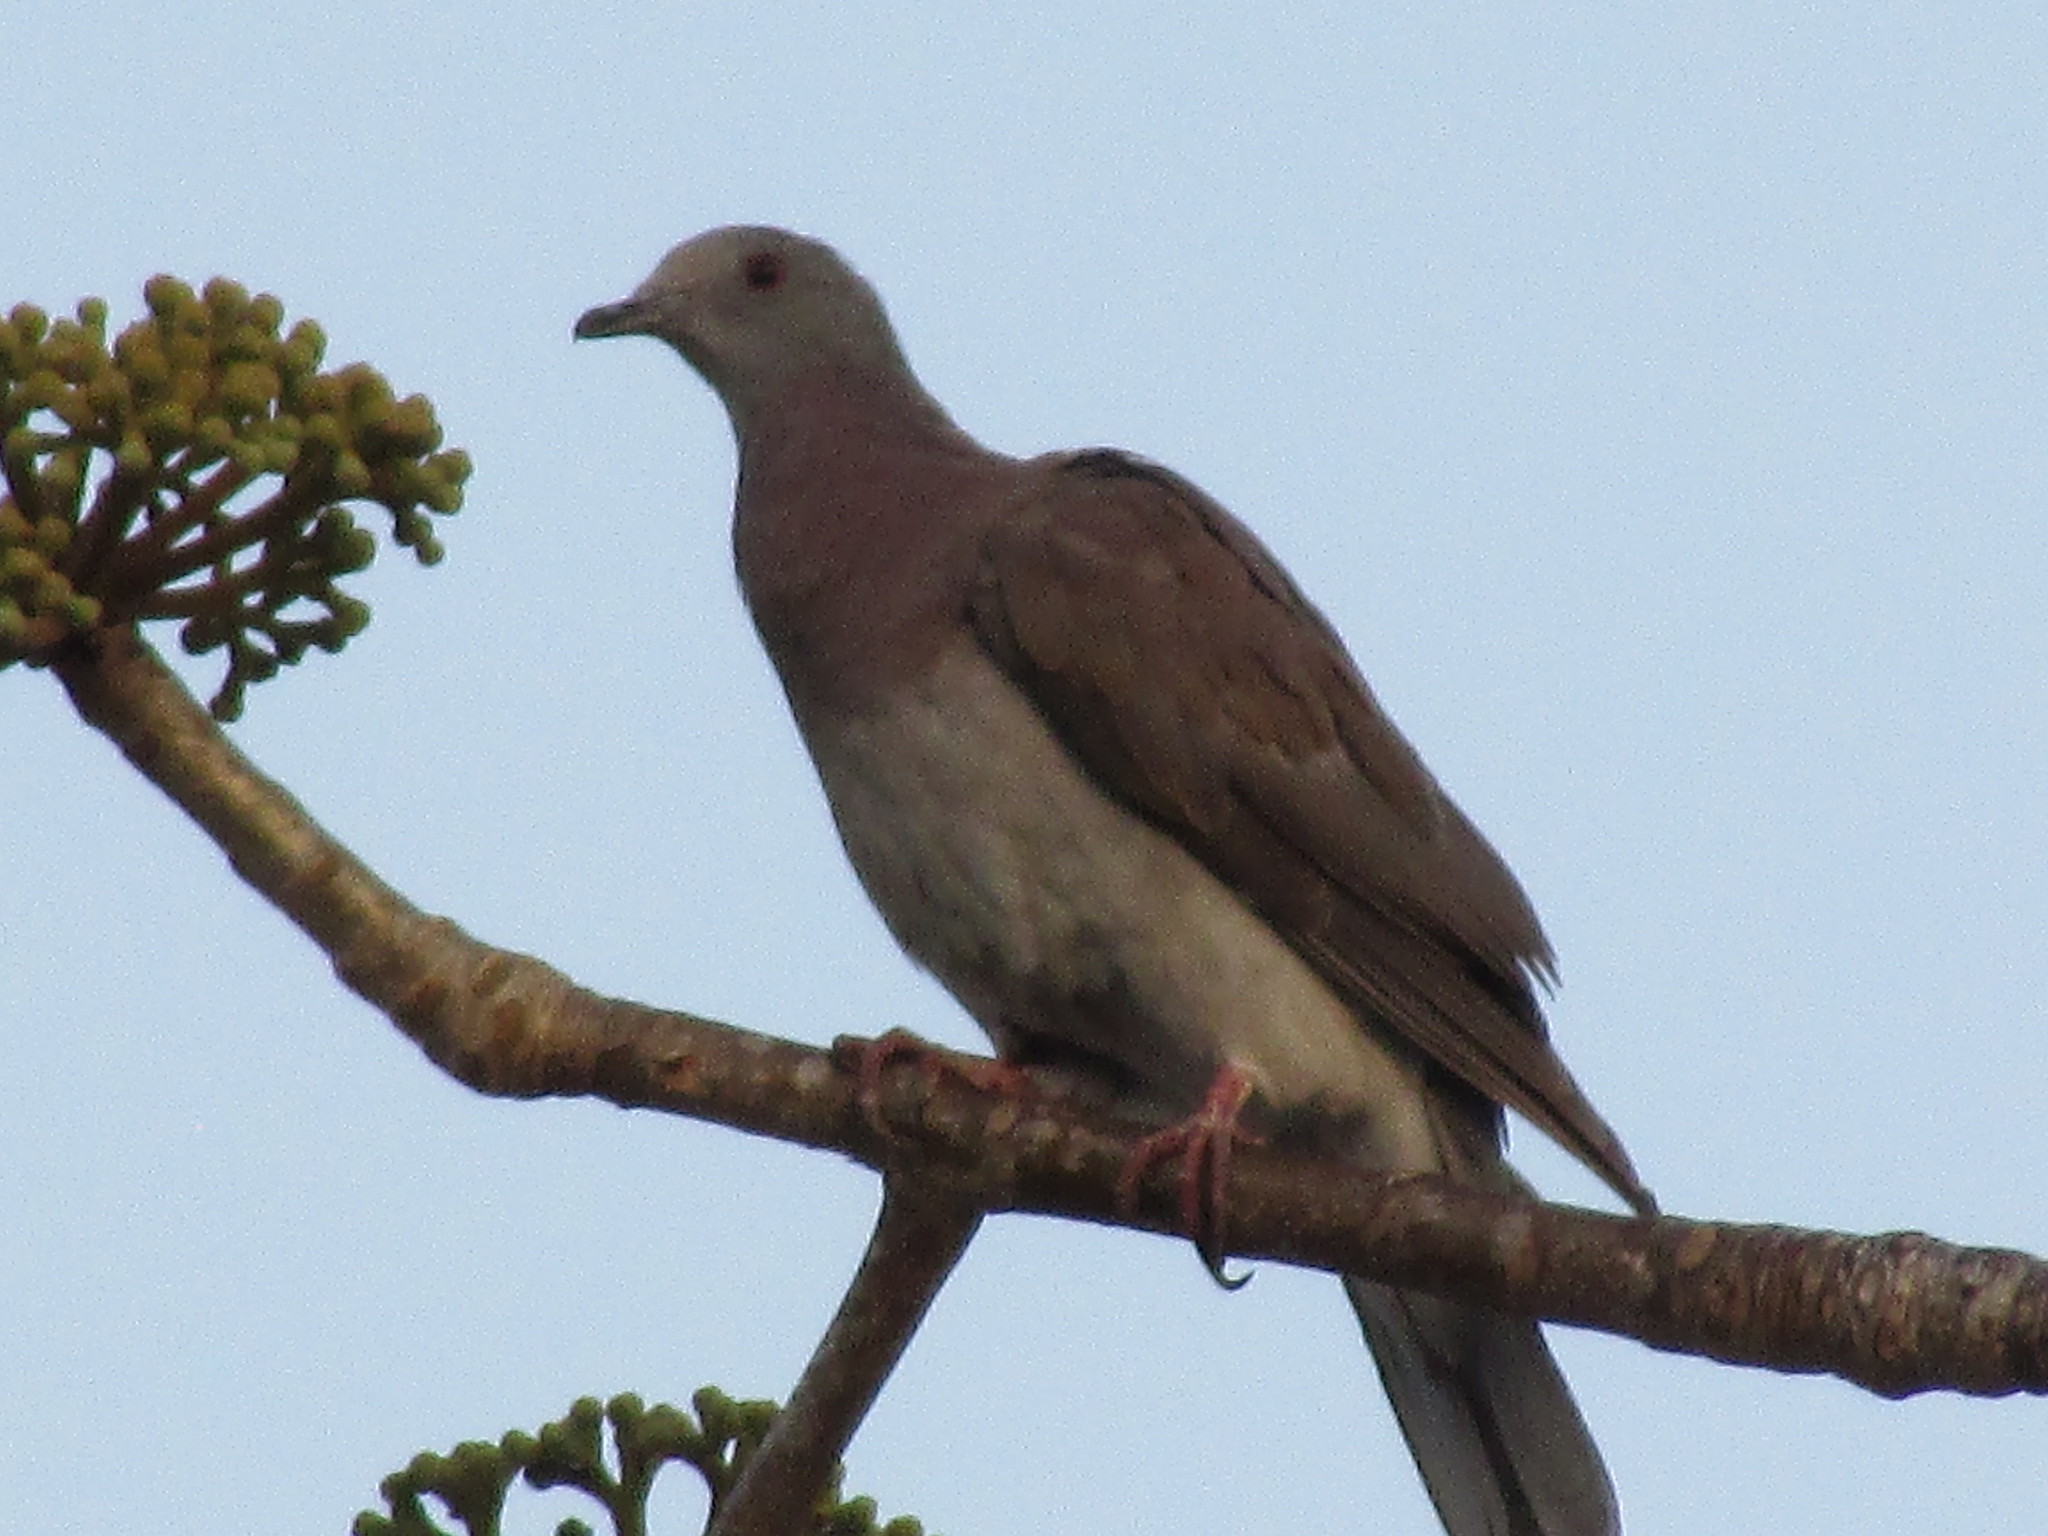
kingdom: Animalia
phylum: Chordata
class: Aves
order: Columbiformes
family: Columbidae
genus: Patagioenas
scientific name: Patagioenas cayennensis
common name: Pale-vented pigeon
